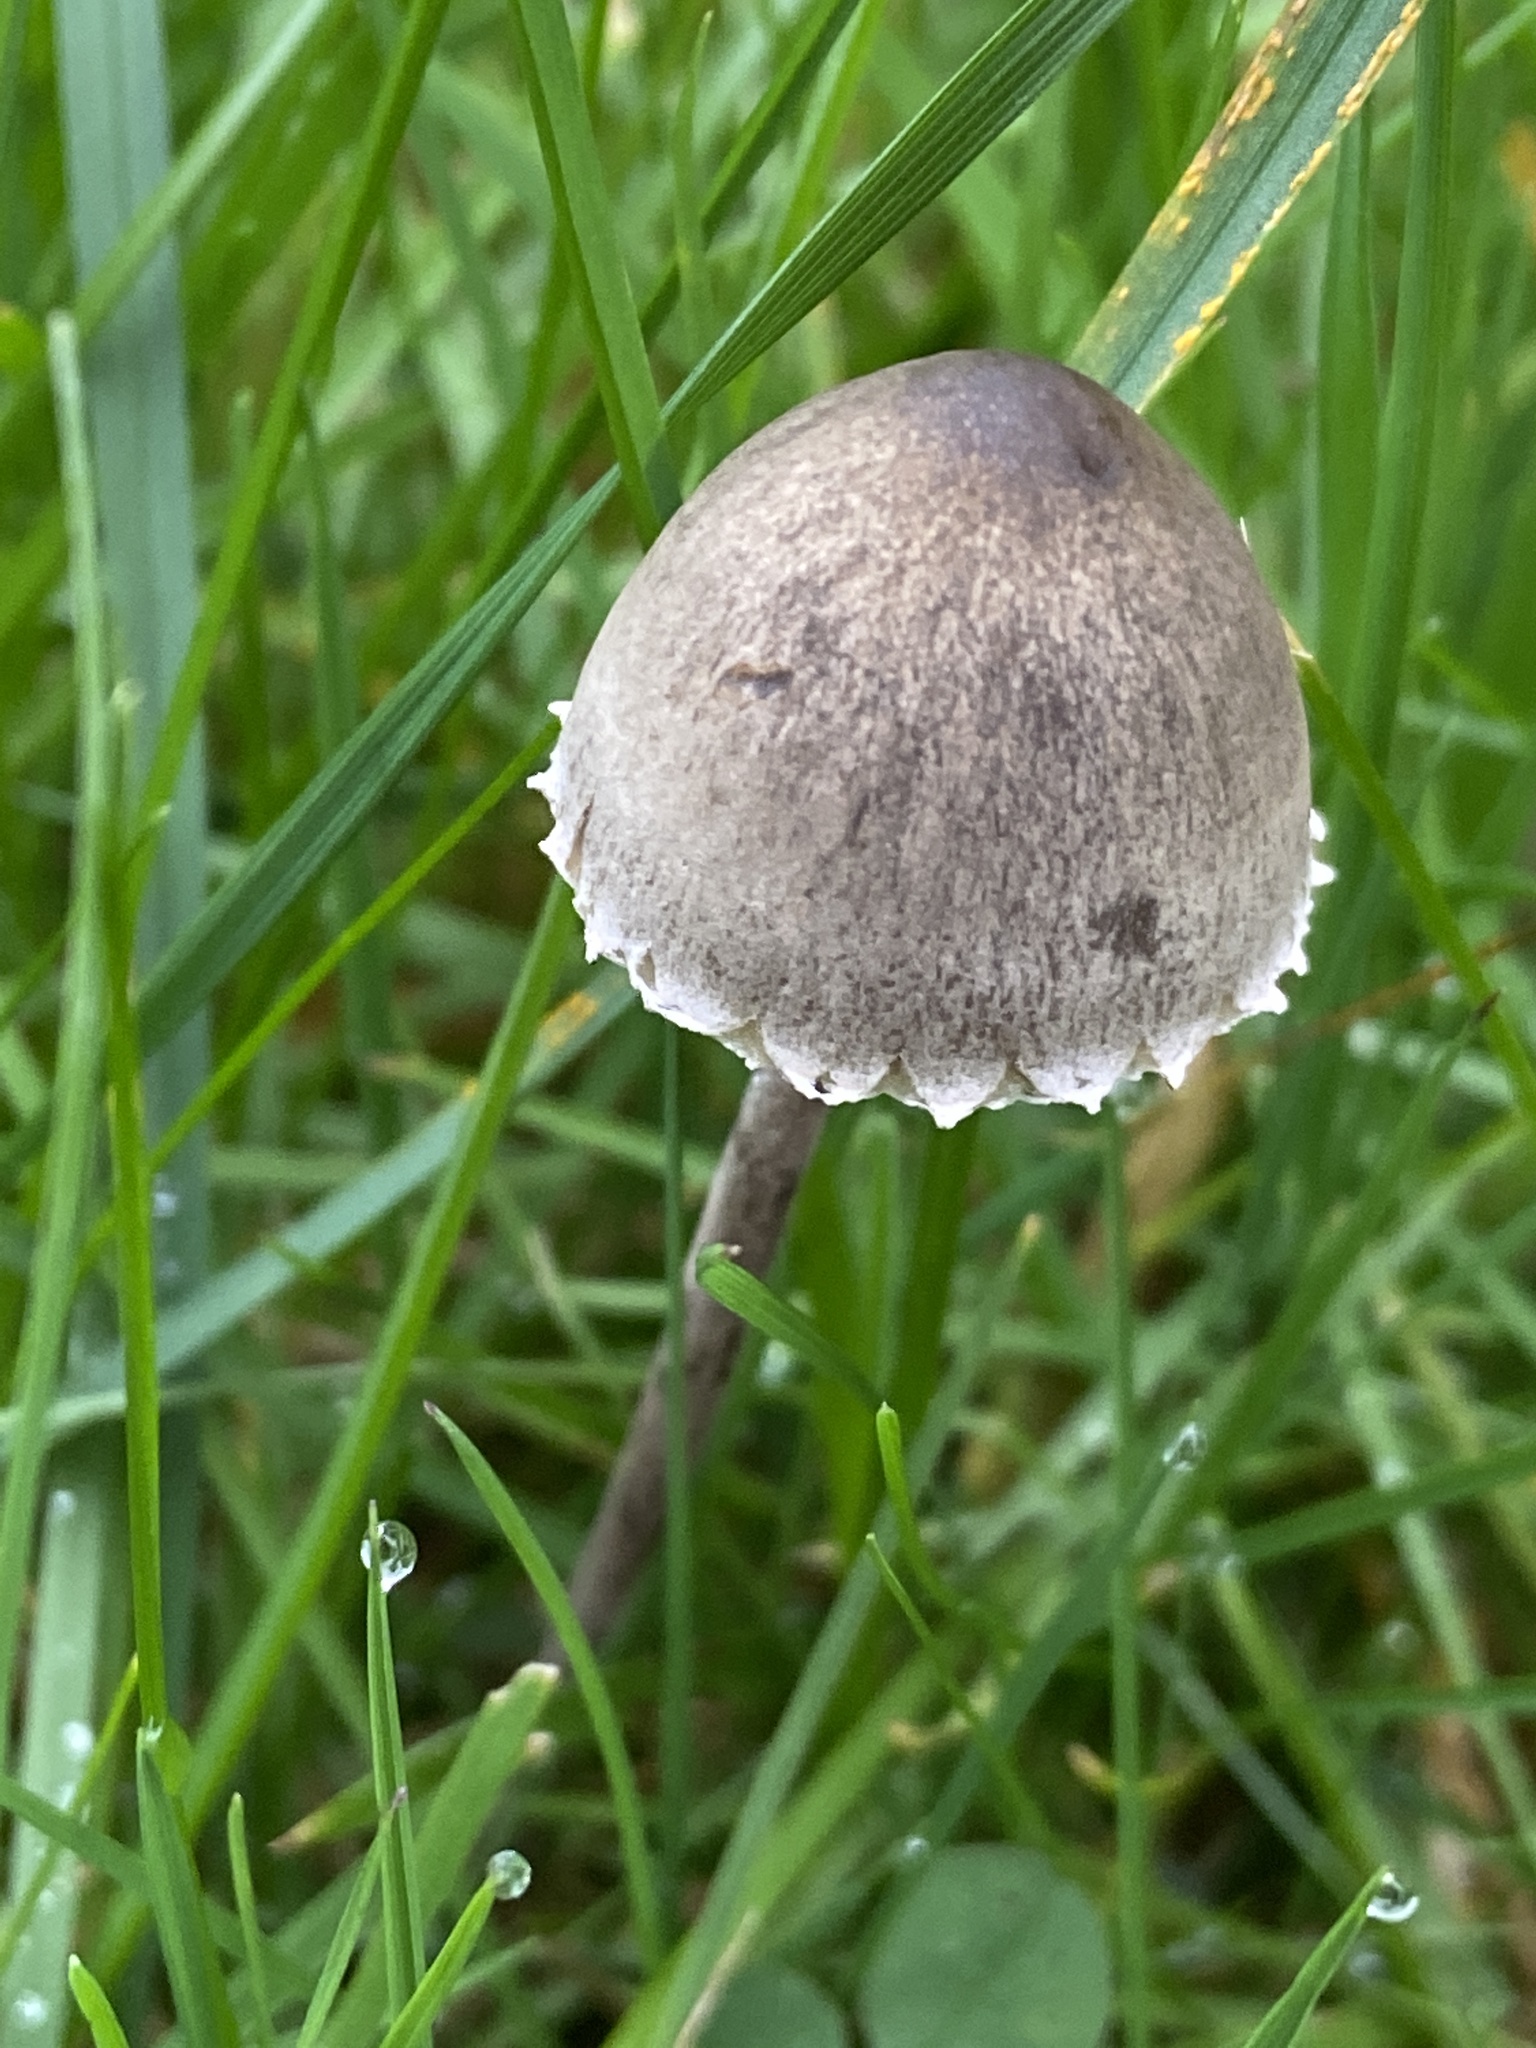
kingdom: Fungi
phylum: Basidiomycota
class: Agaricomycetes
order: Agaricales
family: Bolbitiaceae
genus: Panaeolus
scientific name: Panaeolus papilionaceus
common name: Petticoat mottlegill
